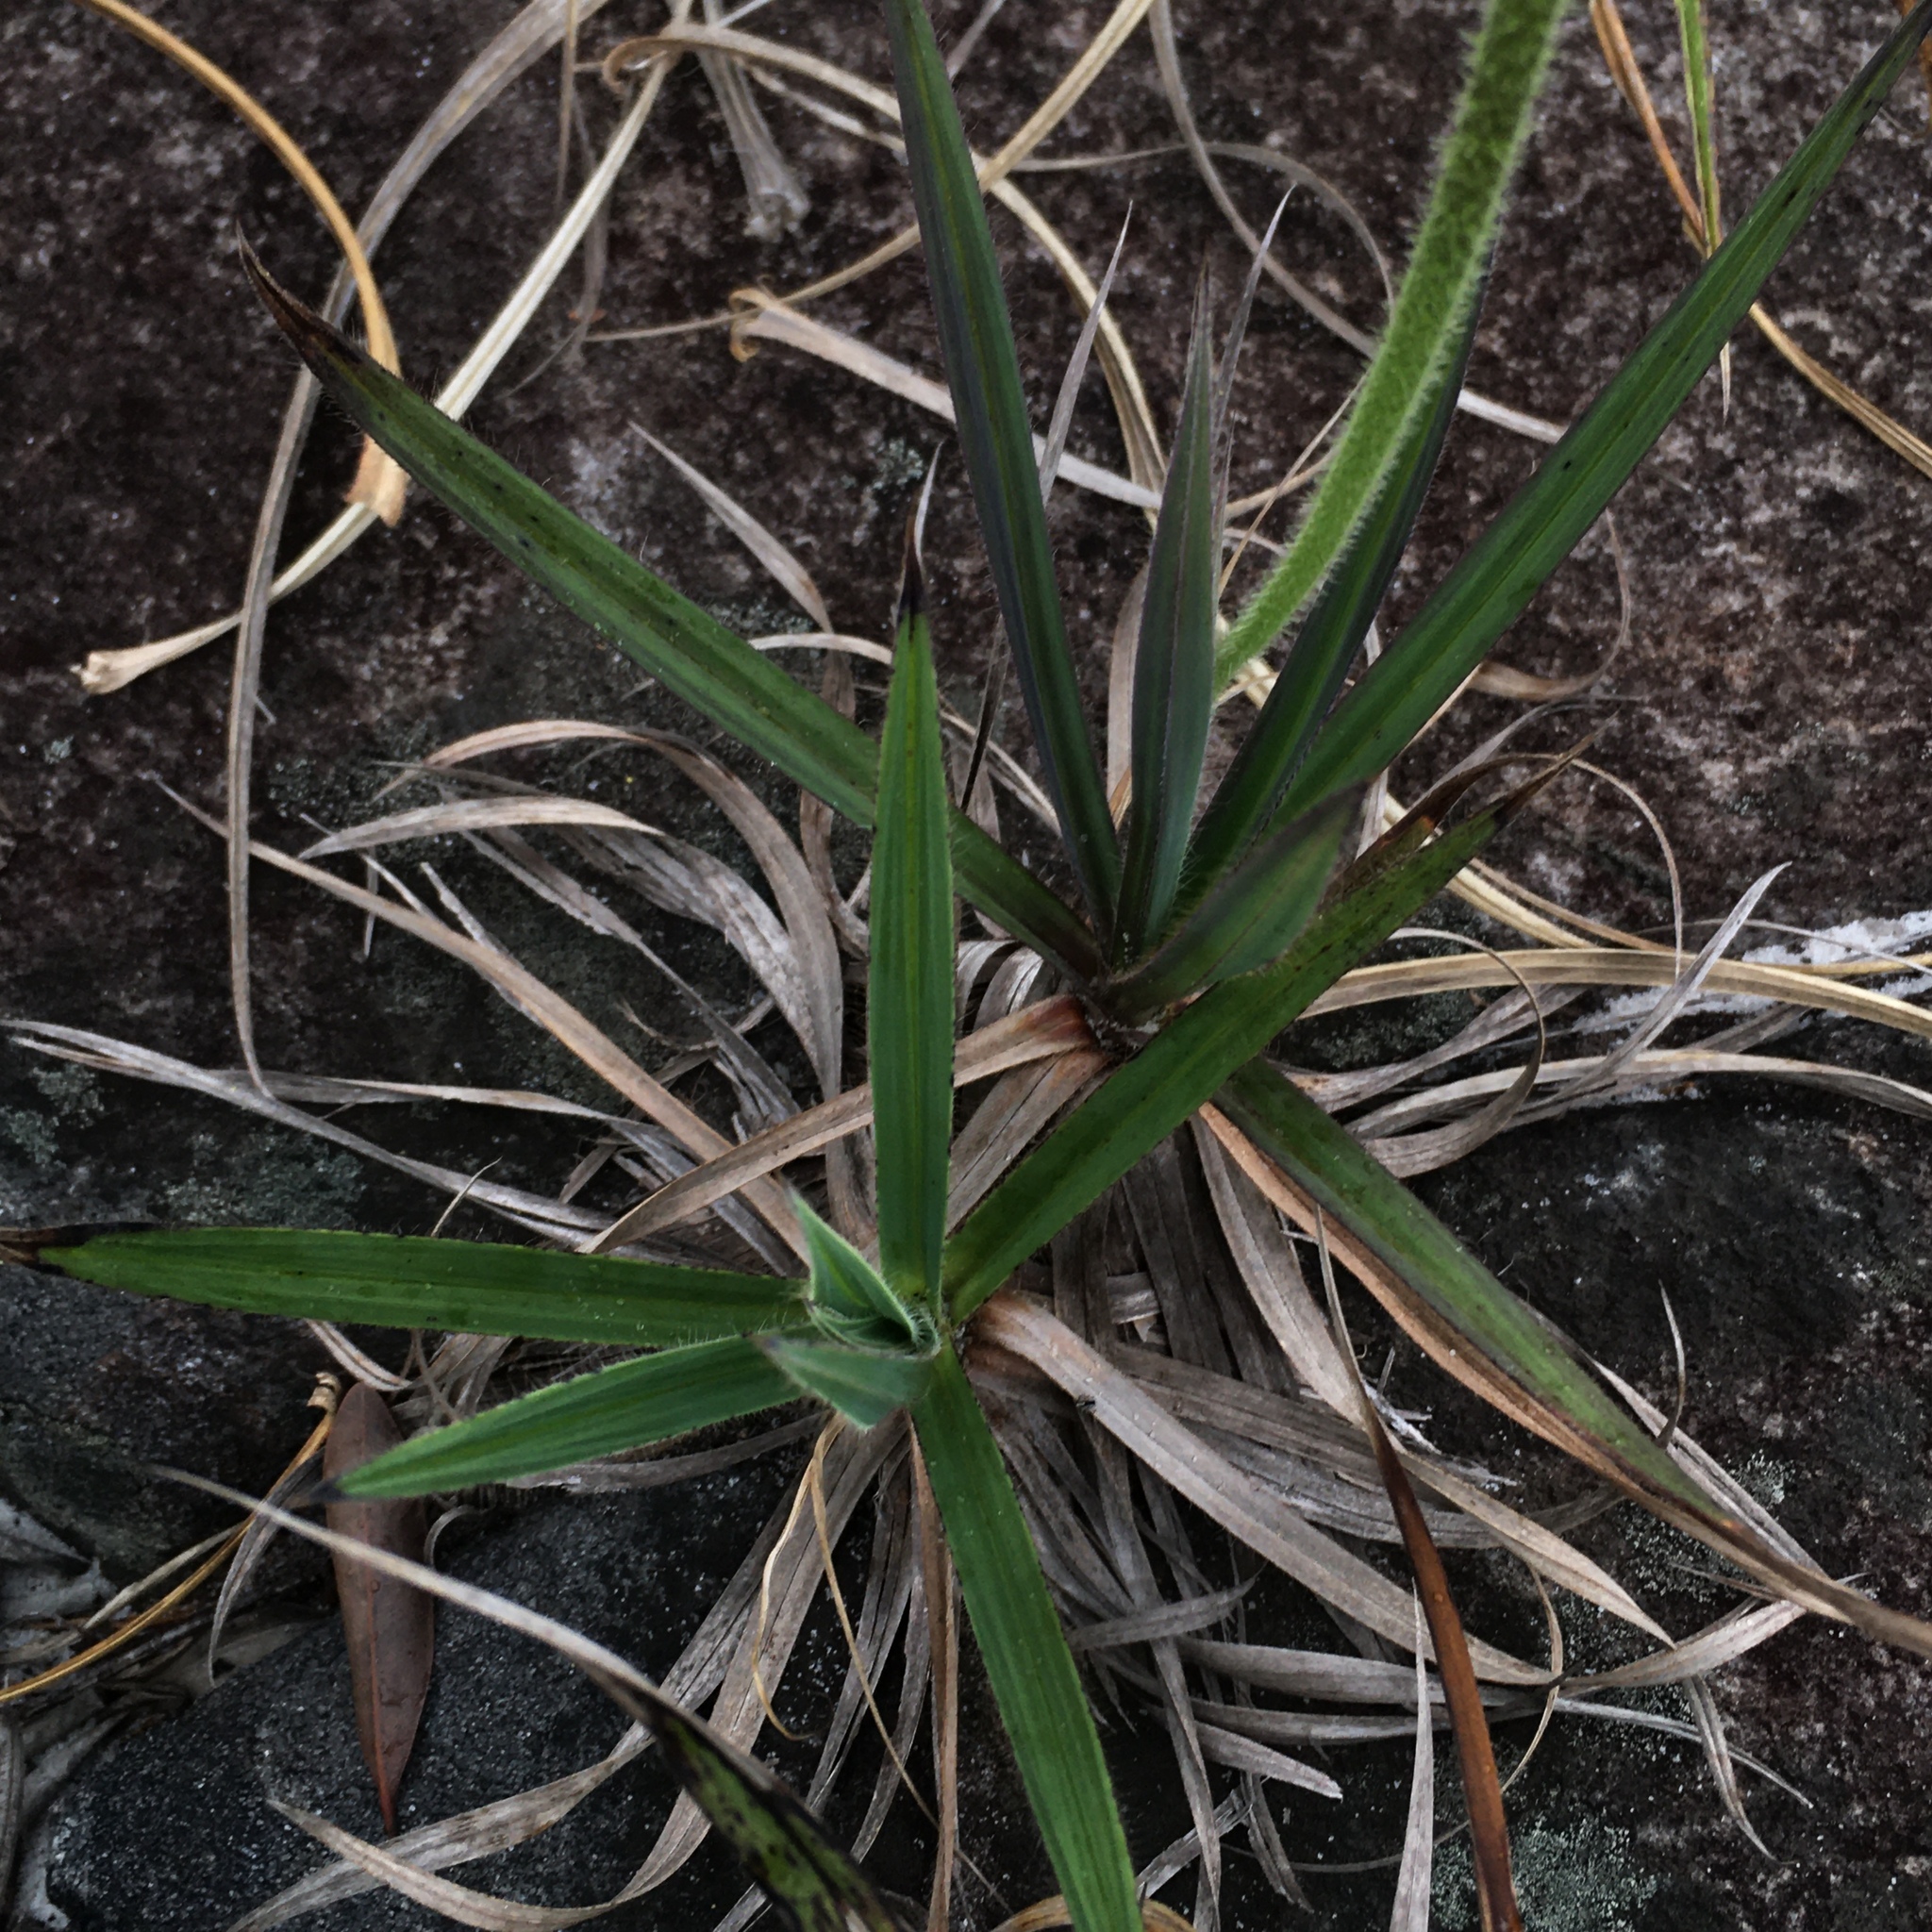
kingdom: Plantae
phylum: Tracheophyta
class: Liliopsida
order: Pandanales
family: Velloziaceae
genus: Barbacenia
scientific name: Barbacenia reflexa
